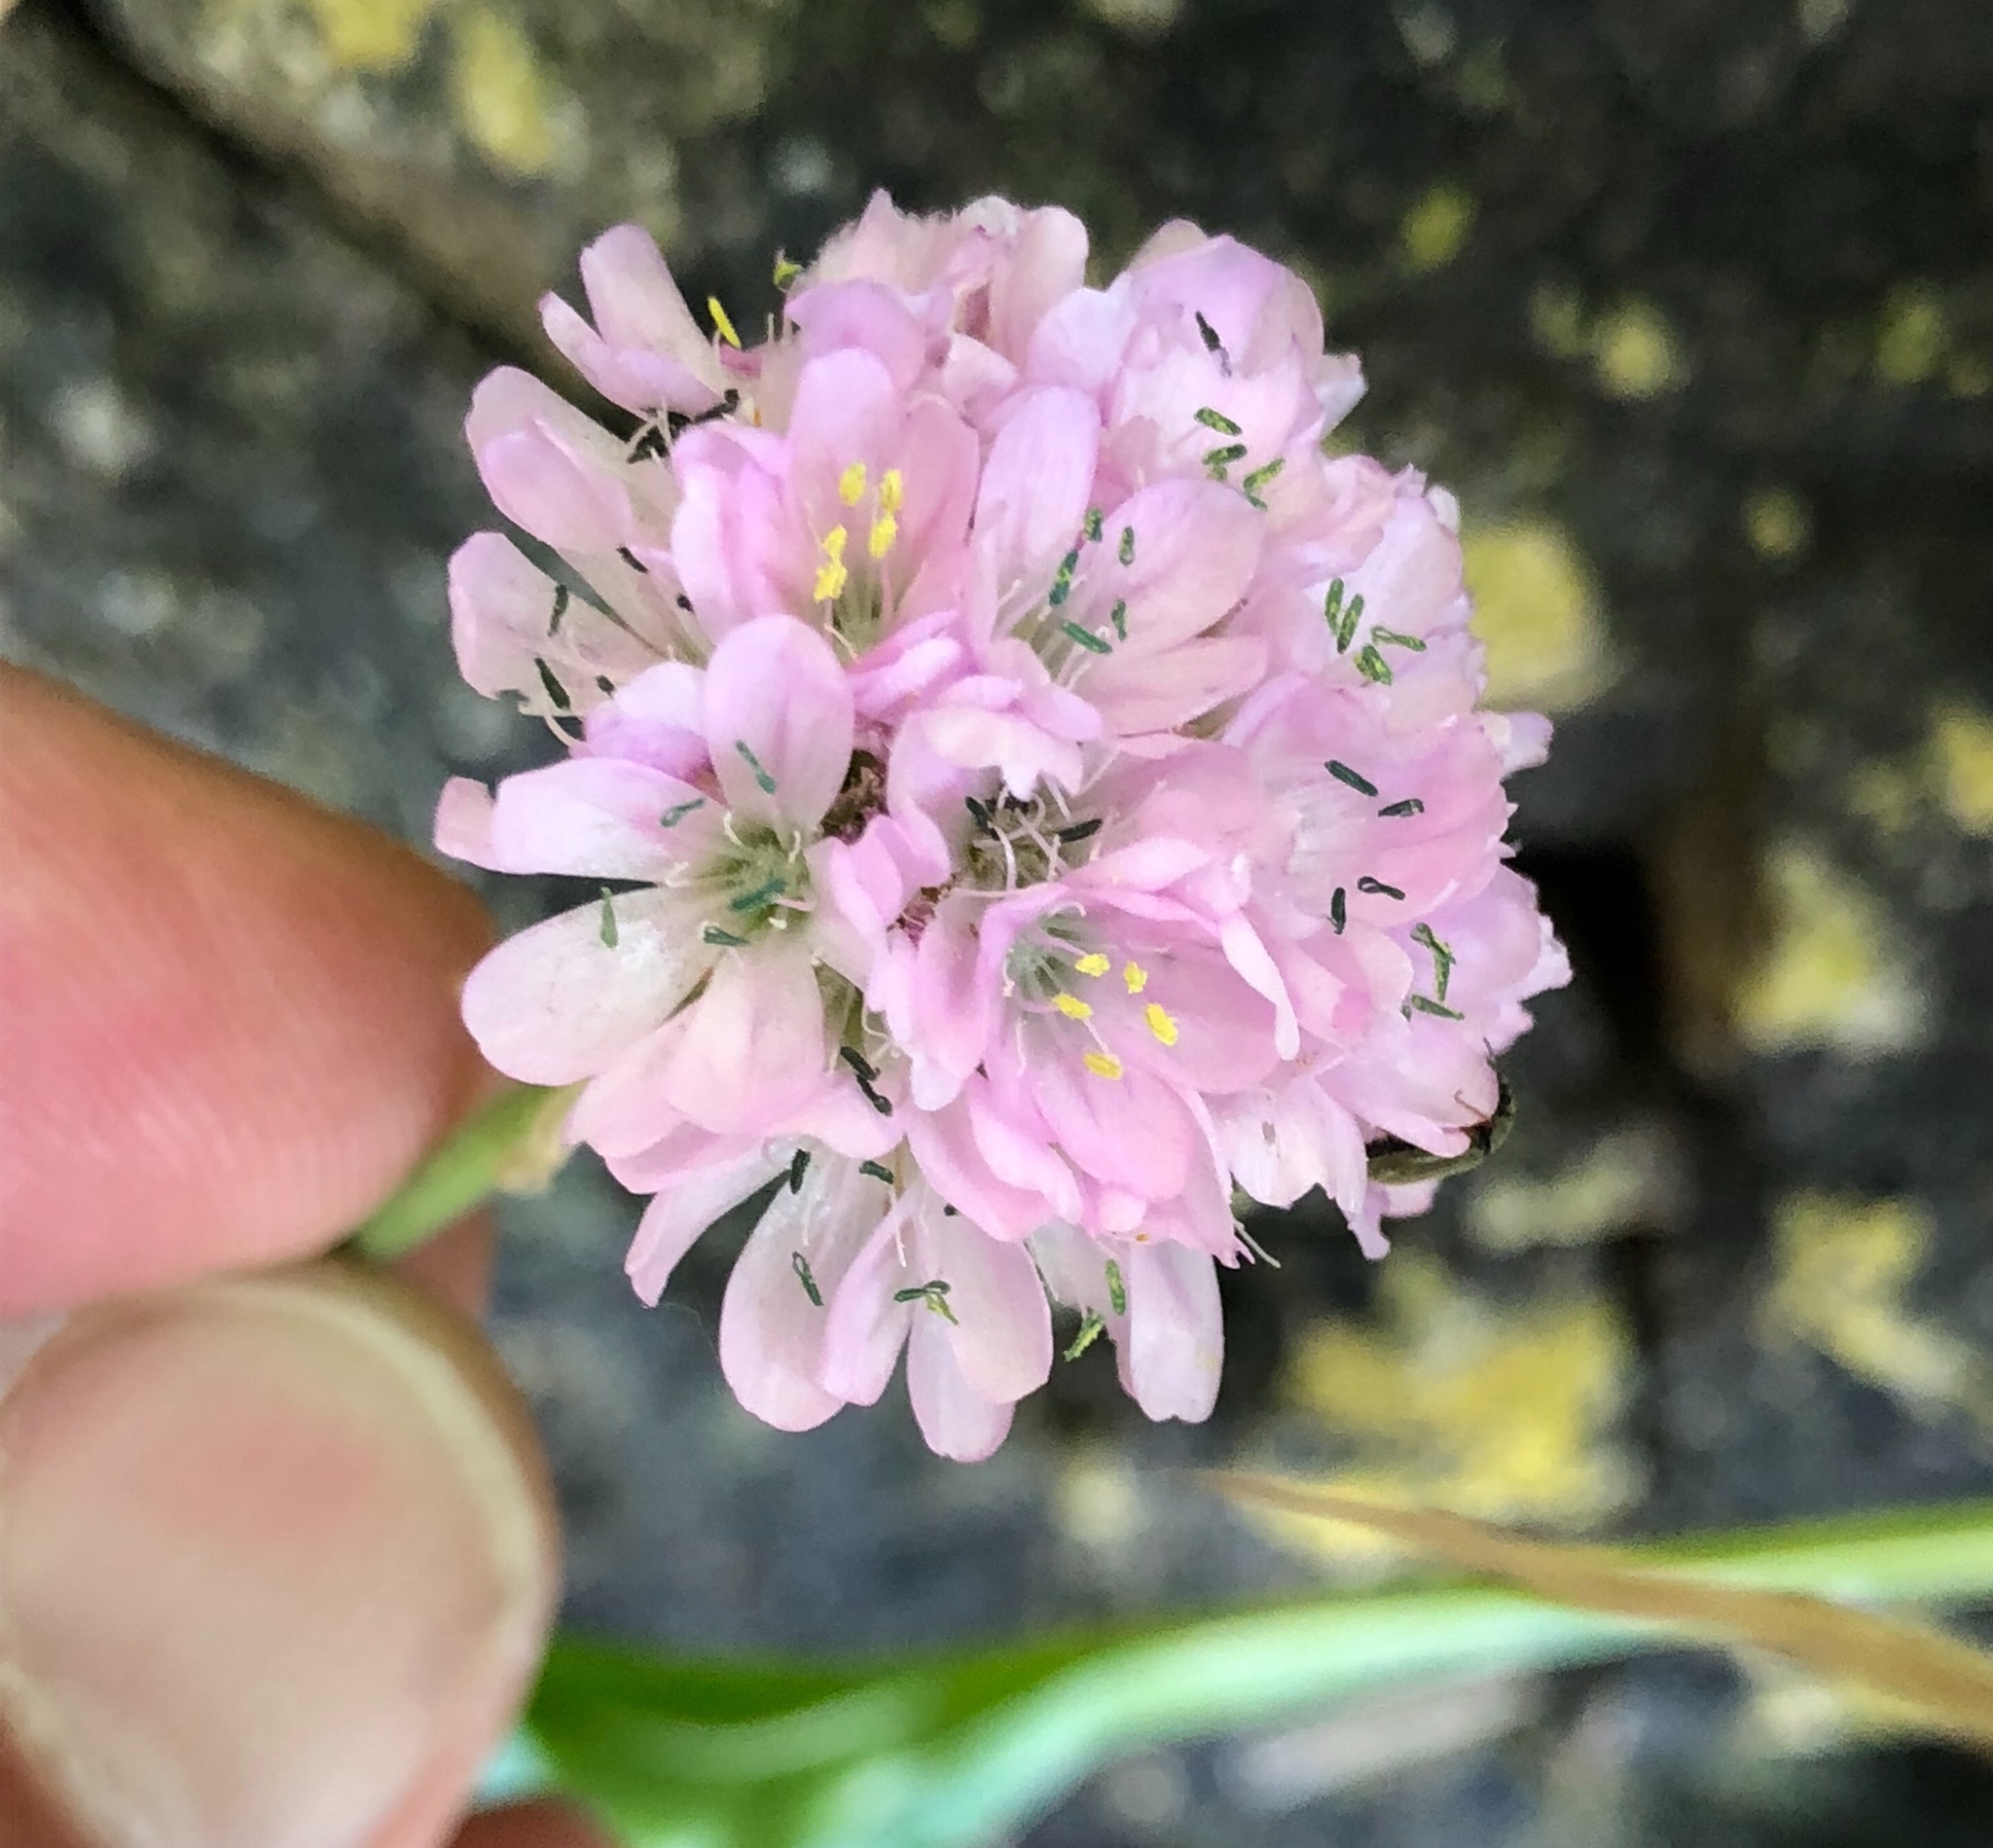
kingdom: Plantae
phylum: Tracheophyta
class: Magnoliopsida
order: Caryophyllales
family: Plumbaginaceae
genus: Armeria
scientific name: Armeria maritima
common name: Thrift
